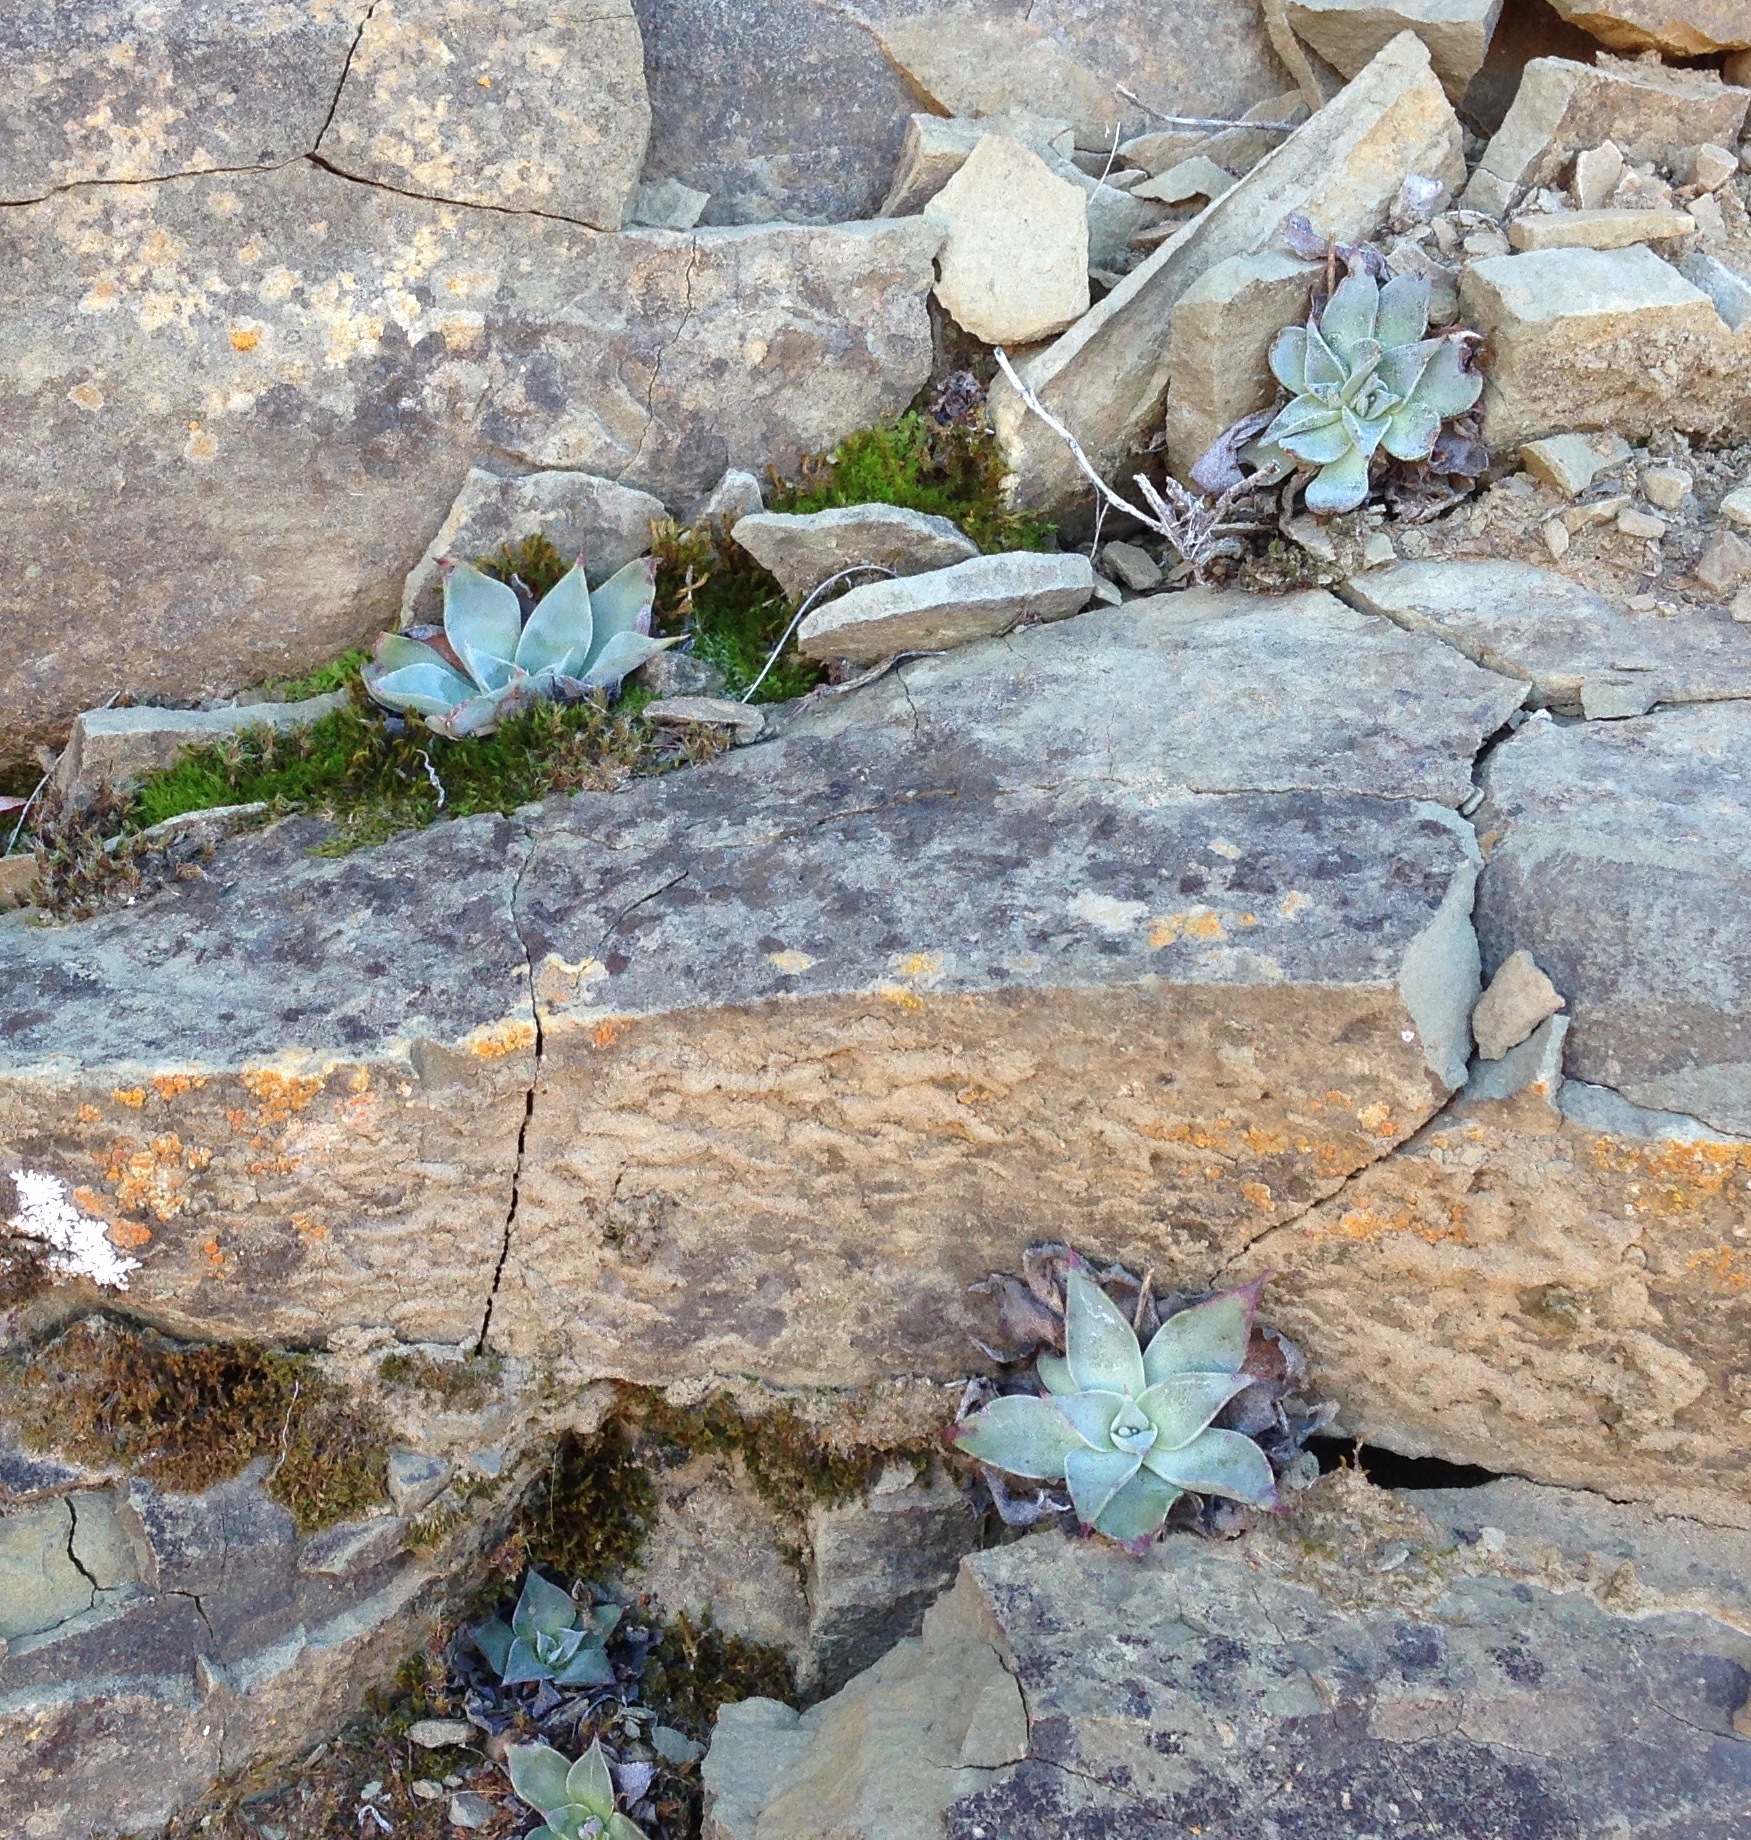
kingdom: Plantae
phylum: Tracheophyta
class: Magnoliopsida
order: Saxifragales
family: Crassulaceae
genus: Dudleya
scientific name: Dudleya cymosa
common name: Canyon dudleya
